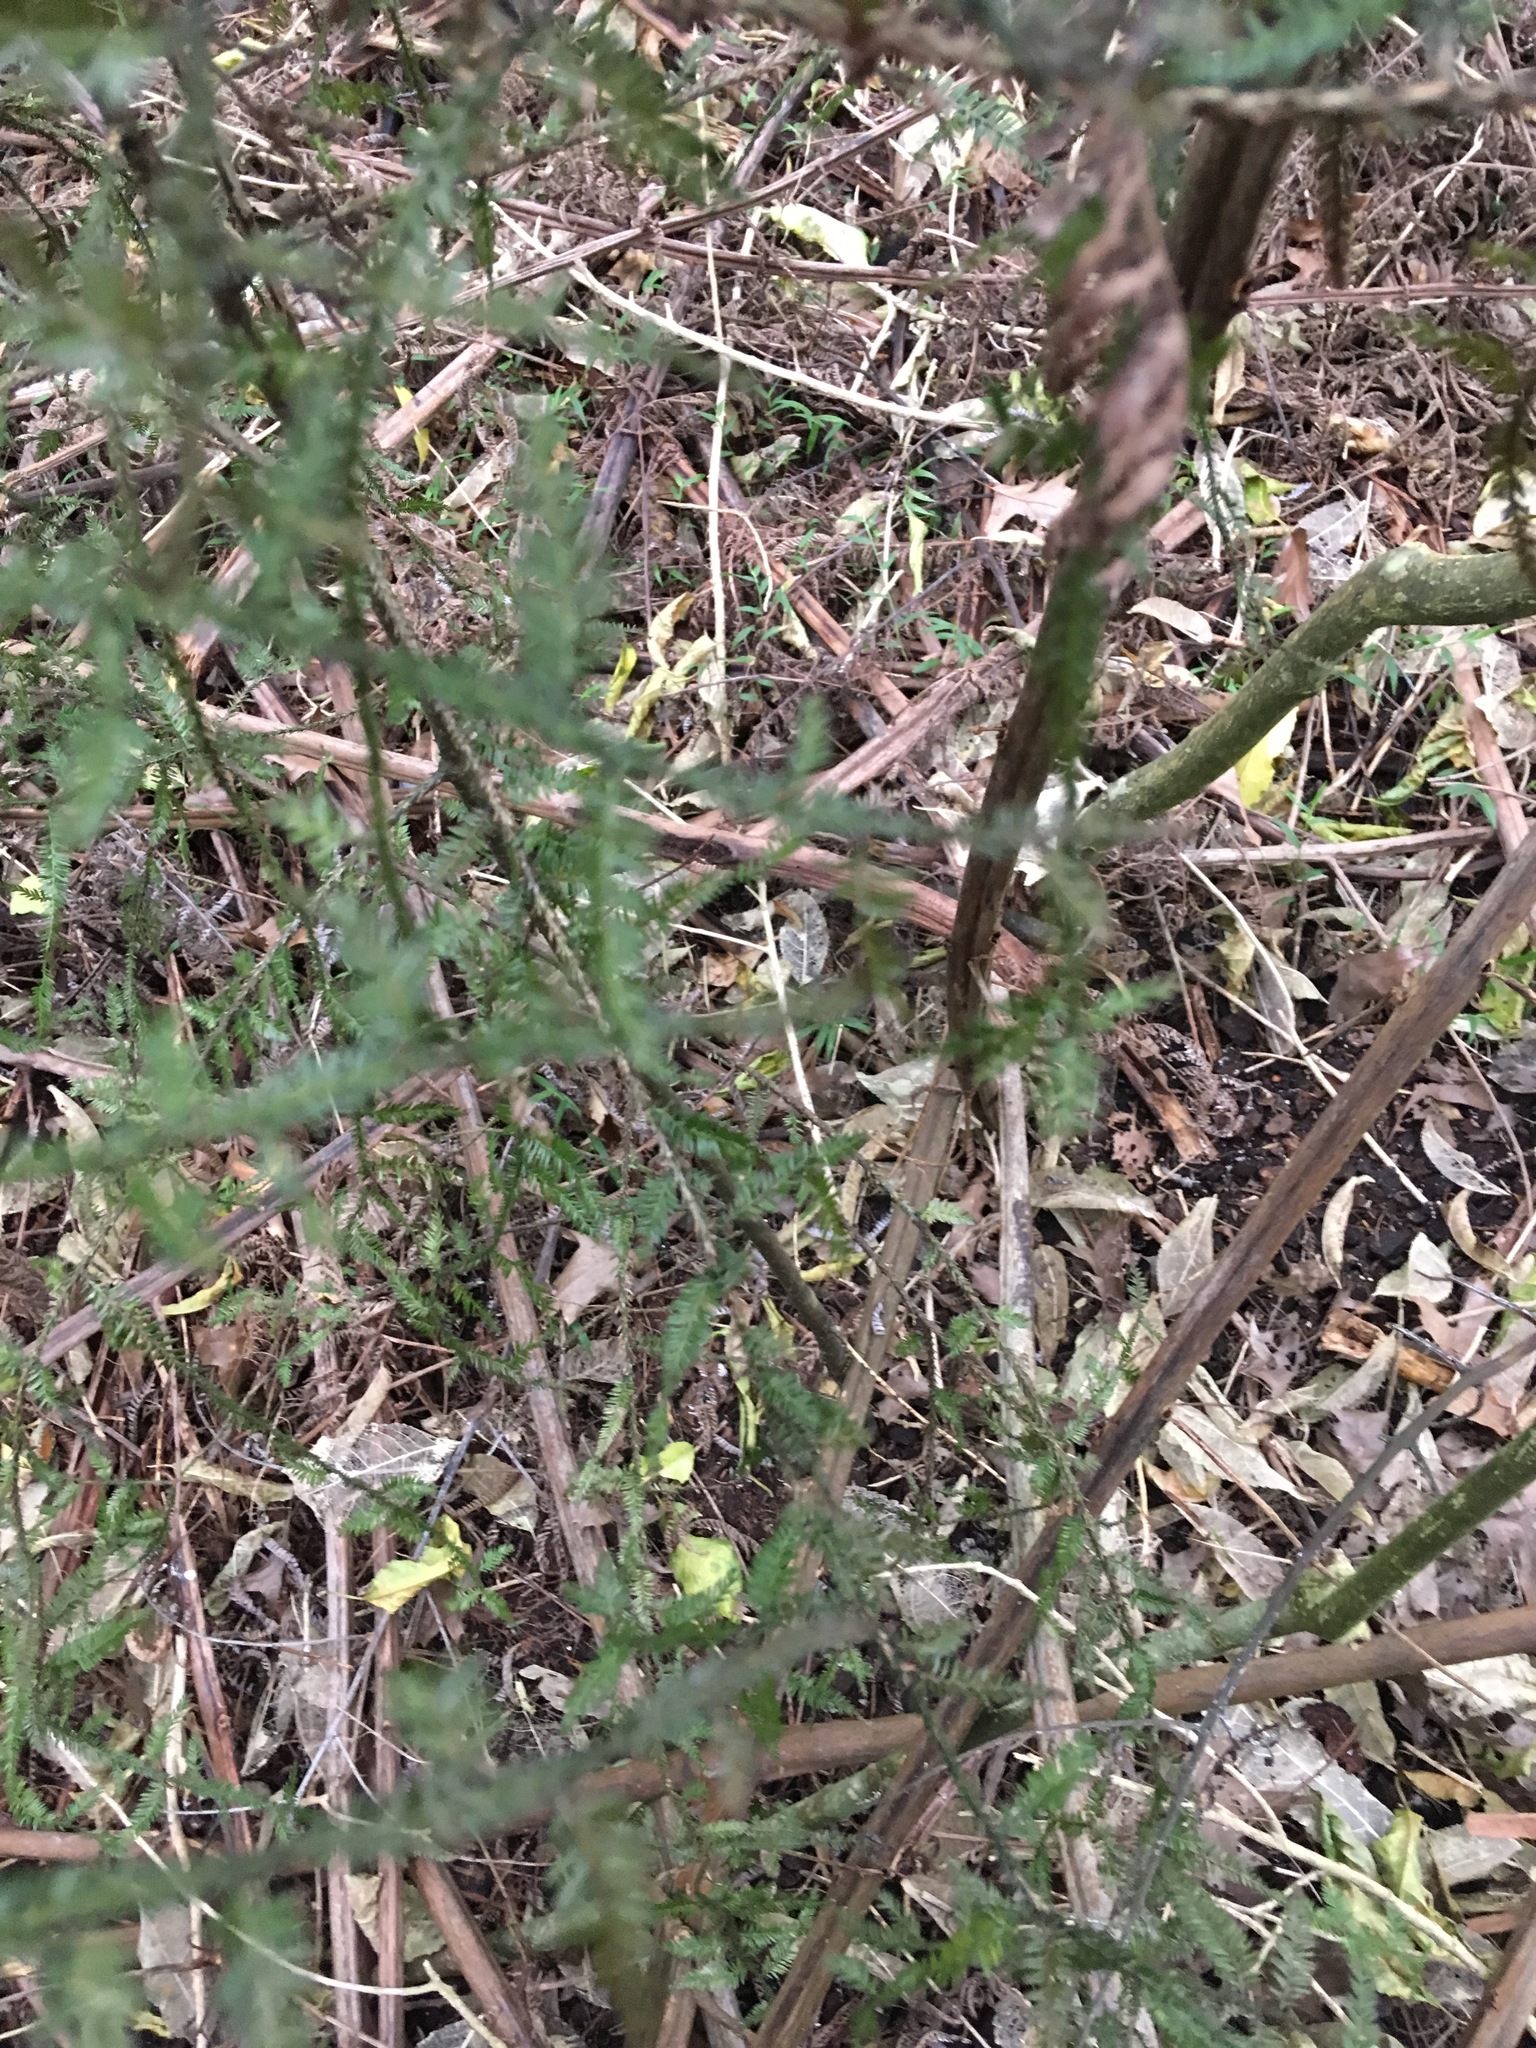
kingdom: Plantae
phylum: Tracheophyta
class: Pinopsida
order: Pinales
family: Podocarpaceae
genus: Dacrycarpus
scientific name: Dacrycarpus dacrydioides
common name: White pine
